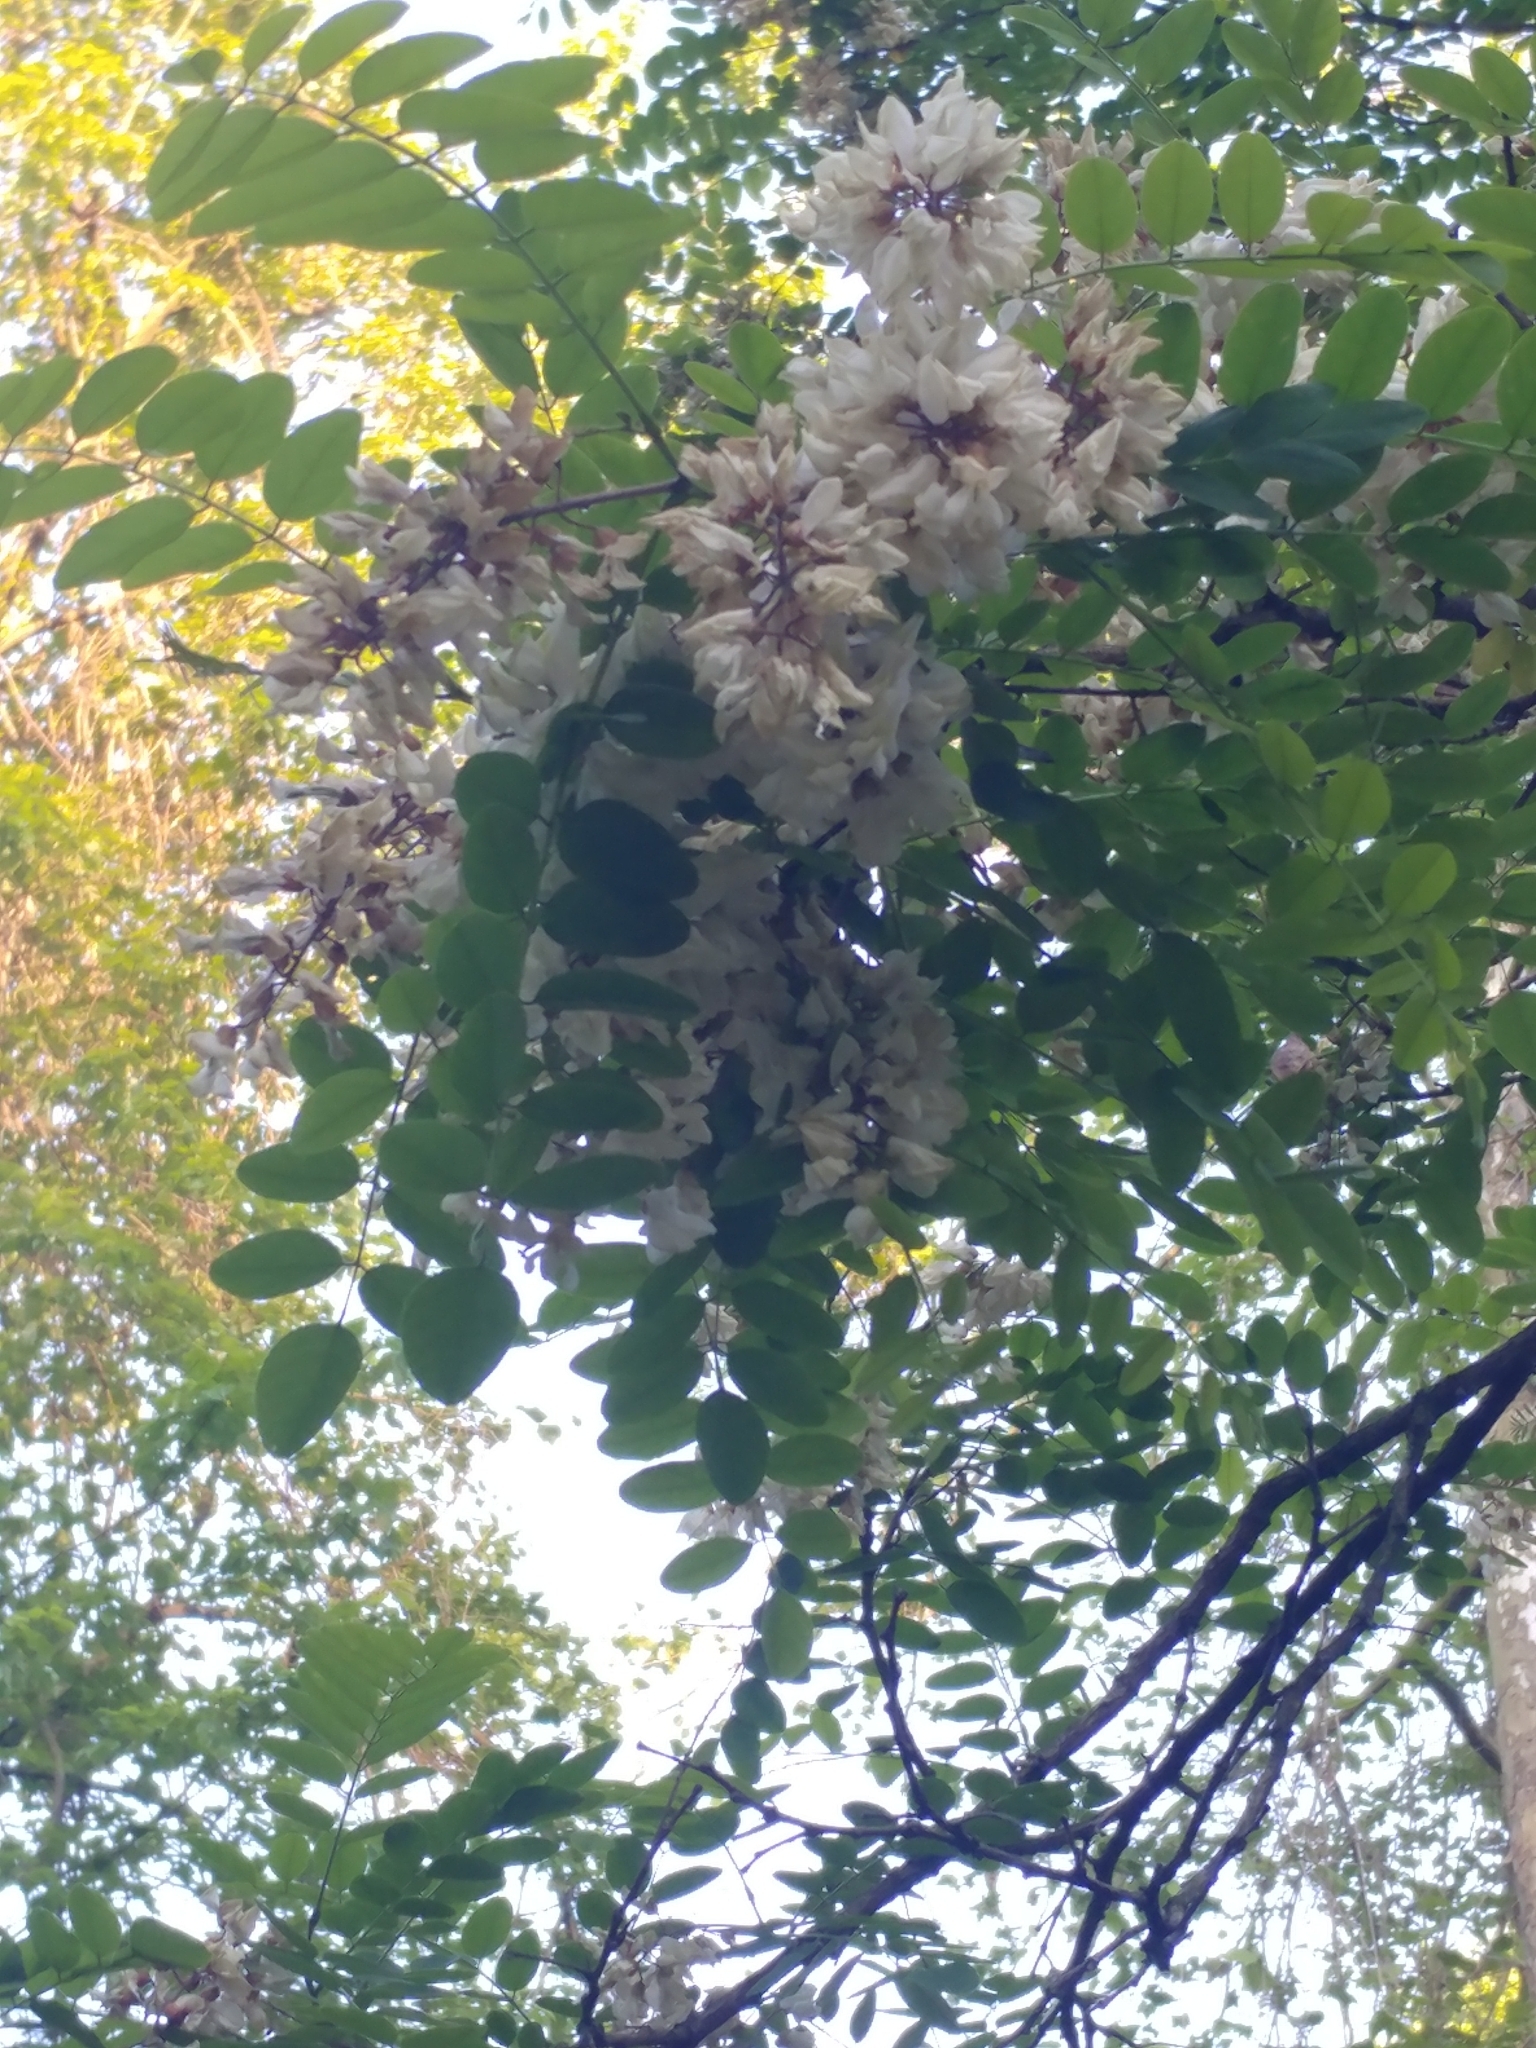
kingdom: Plantae
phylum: Tracheophyta
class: Magnoliopsida
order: Fabales
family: Fabaceae
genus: Robinia
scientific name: Robinia pseudoacacia
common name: Black locust
